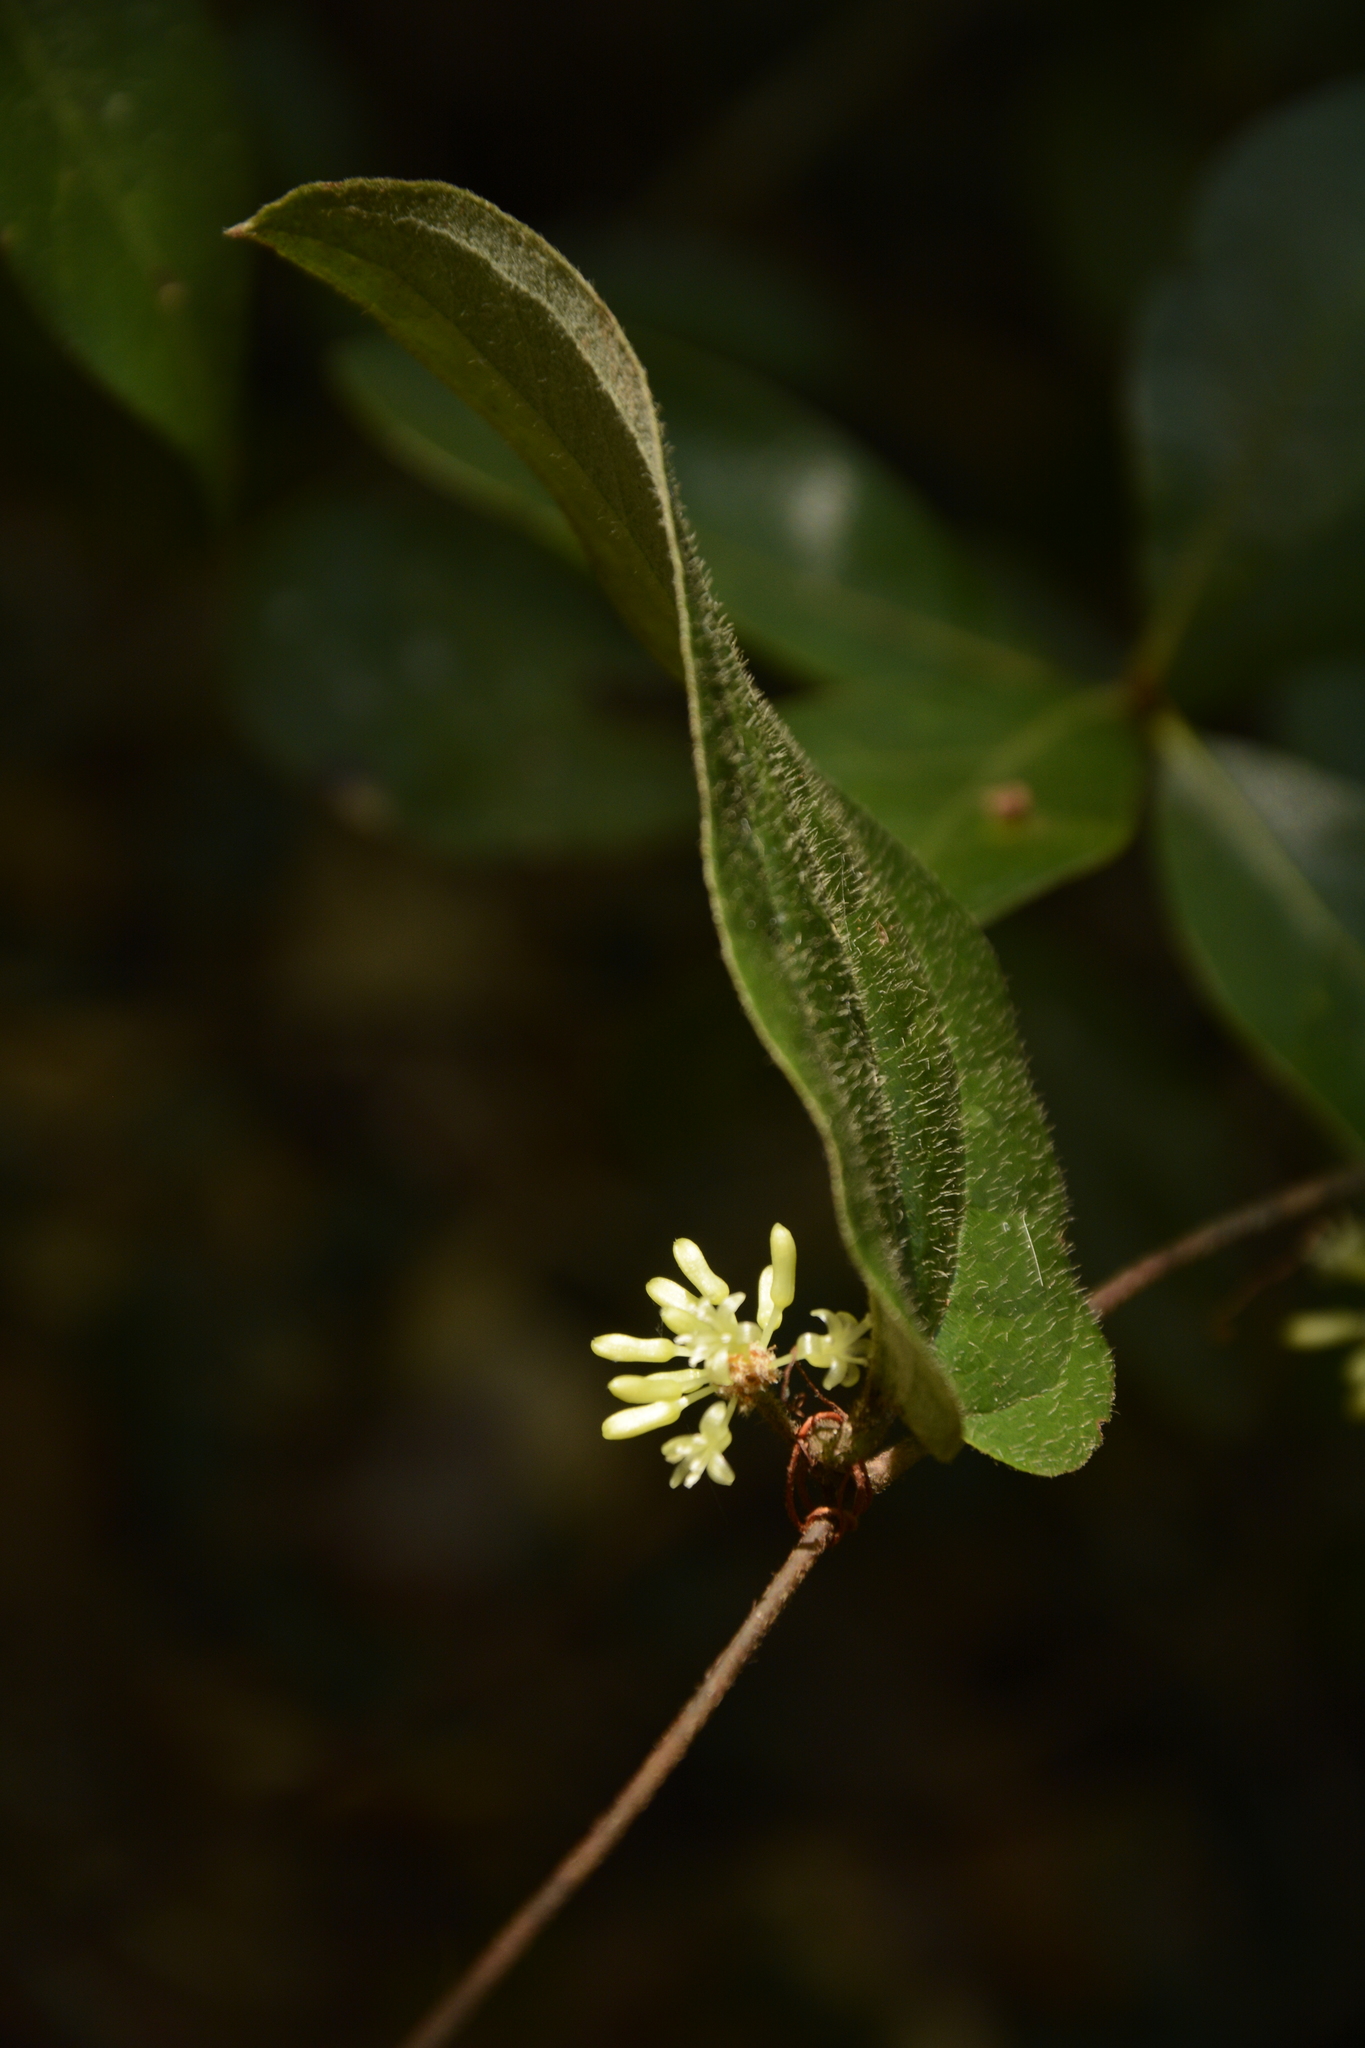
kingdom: Plantae
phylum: Tracheophyta
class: Liliopsida
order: Liliales
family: Smilacaceae
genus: Smilax
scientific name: Smilax pumila
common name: Sarsaparilla-vine
